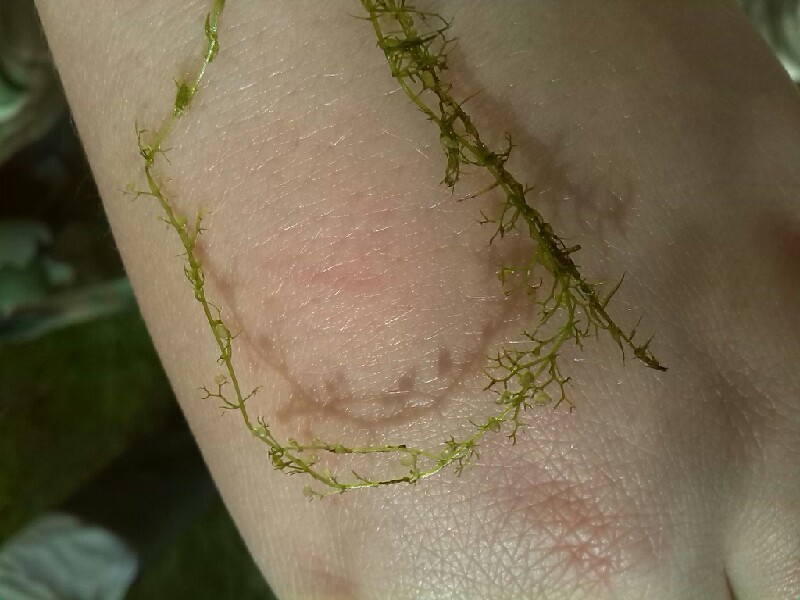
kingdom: Plantae
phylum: Tracheophyta
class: Magnoliopsida
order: Lamiales
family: Lentibulariaceae
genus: Utricularia
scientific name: Utricularia minor
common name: Lesser bladderwort
